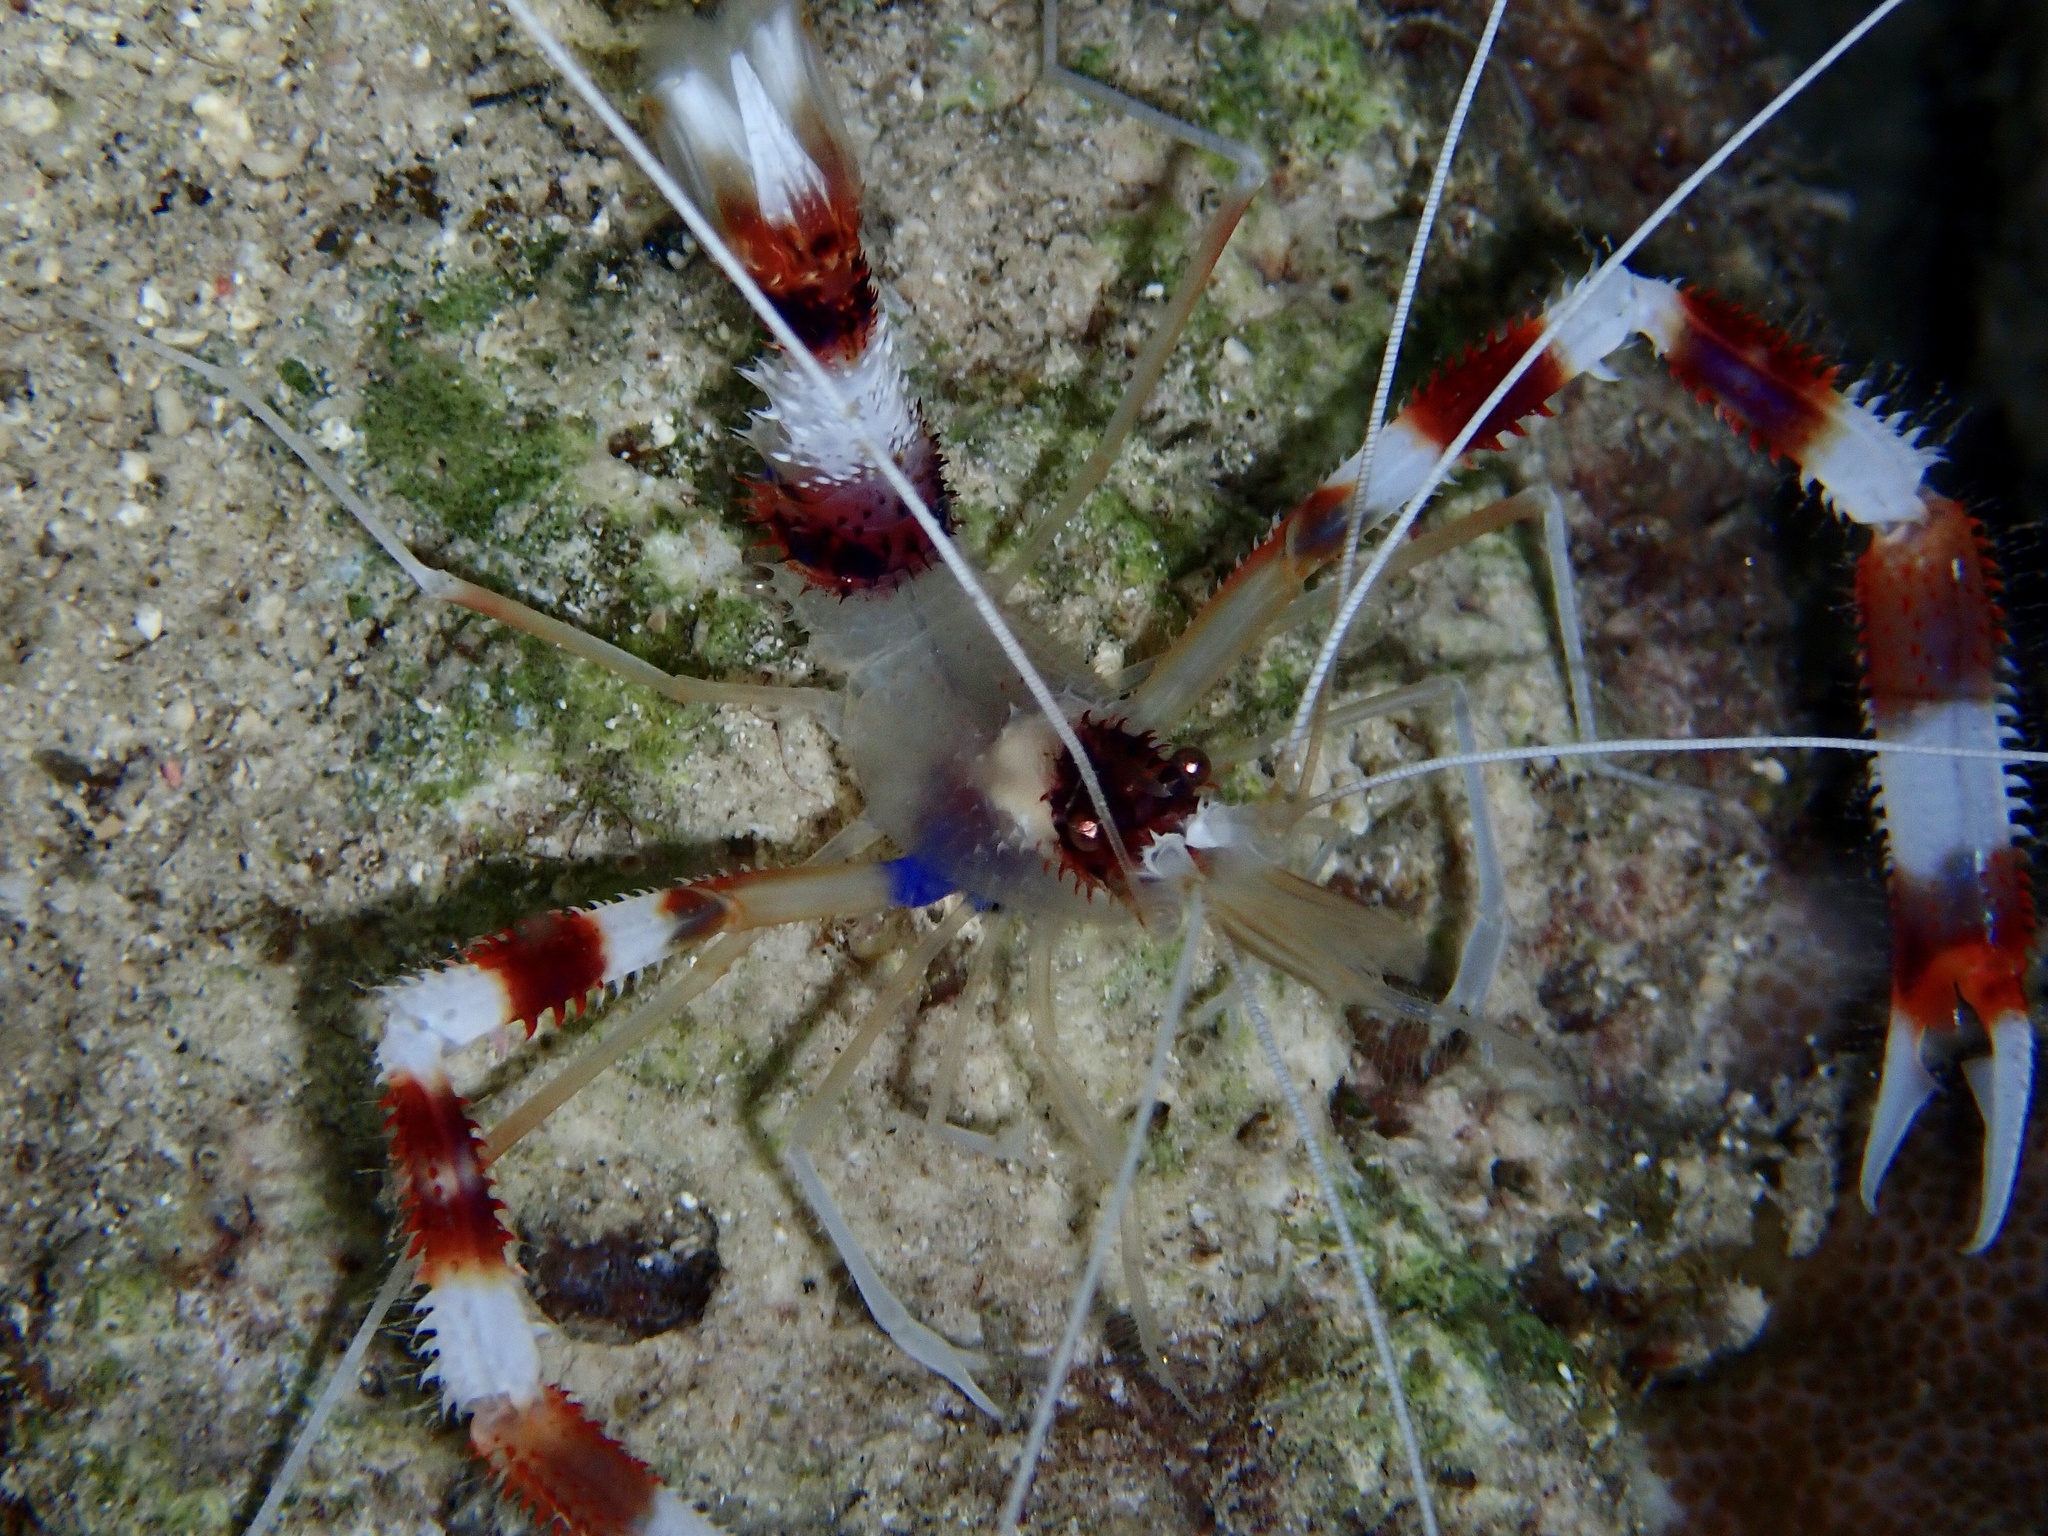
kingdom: Animalia
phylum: Arthropoda
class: Malacostraca
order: Decapoda
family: Stenopodidae
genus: Stenopus
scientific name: Stenopus hispidus
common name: Banded coral shrimp
